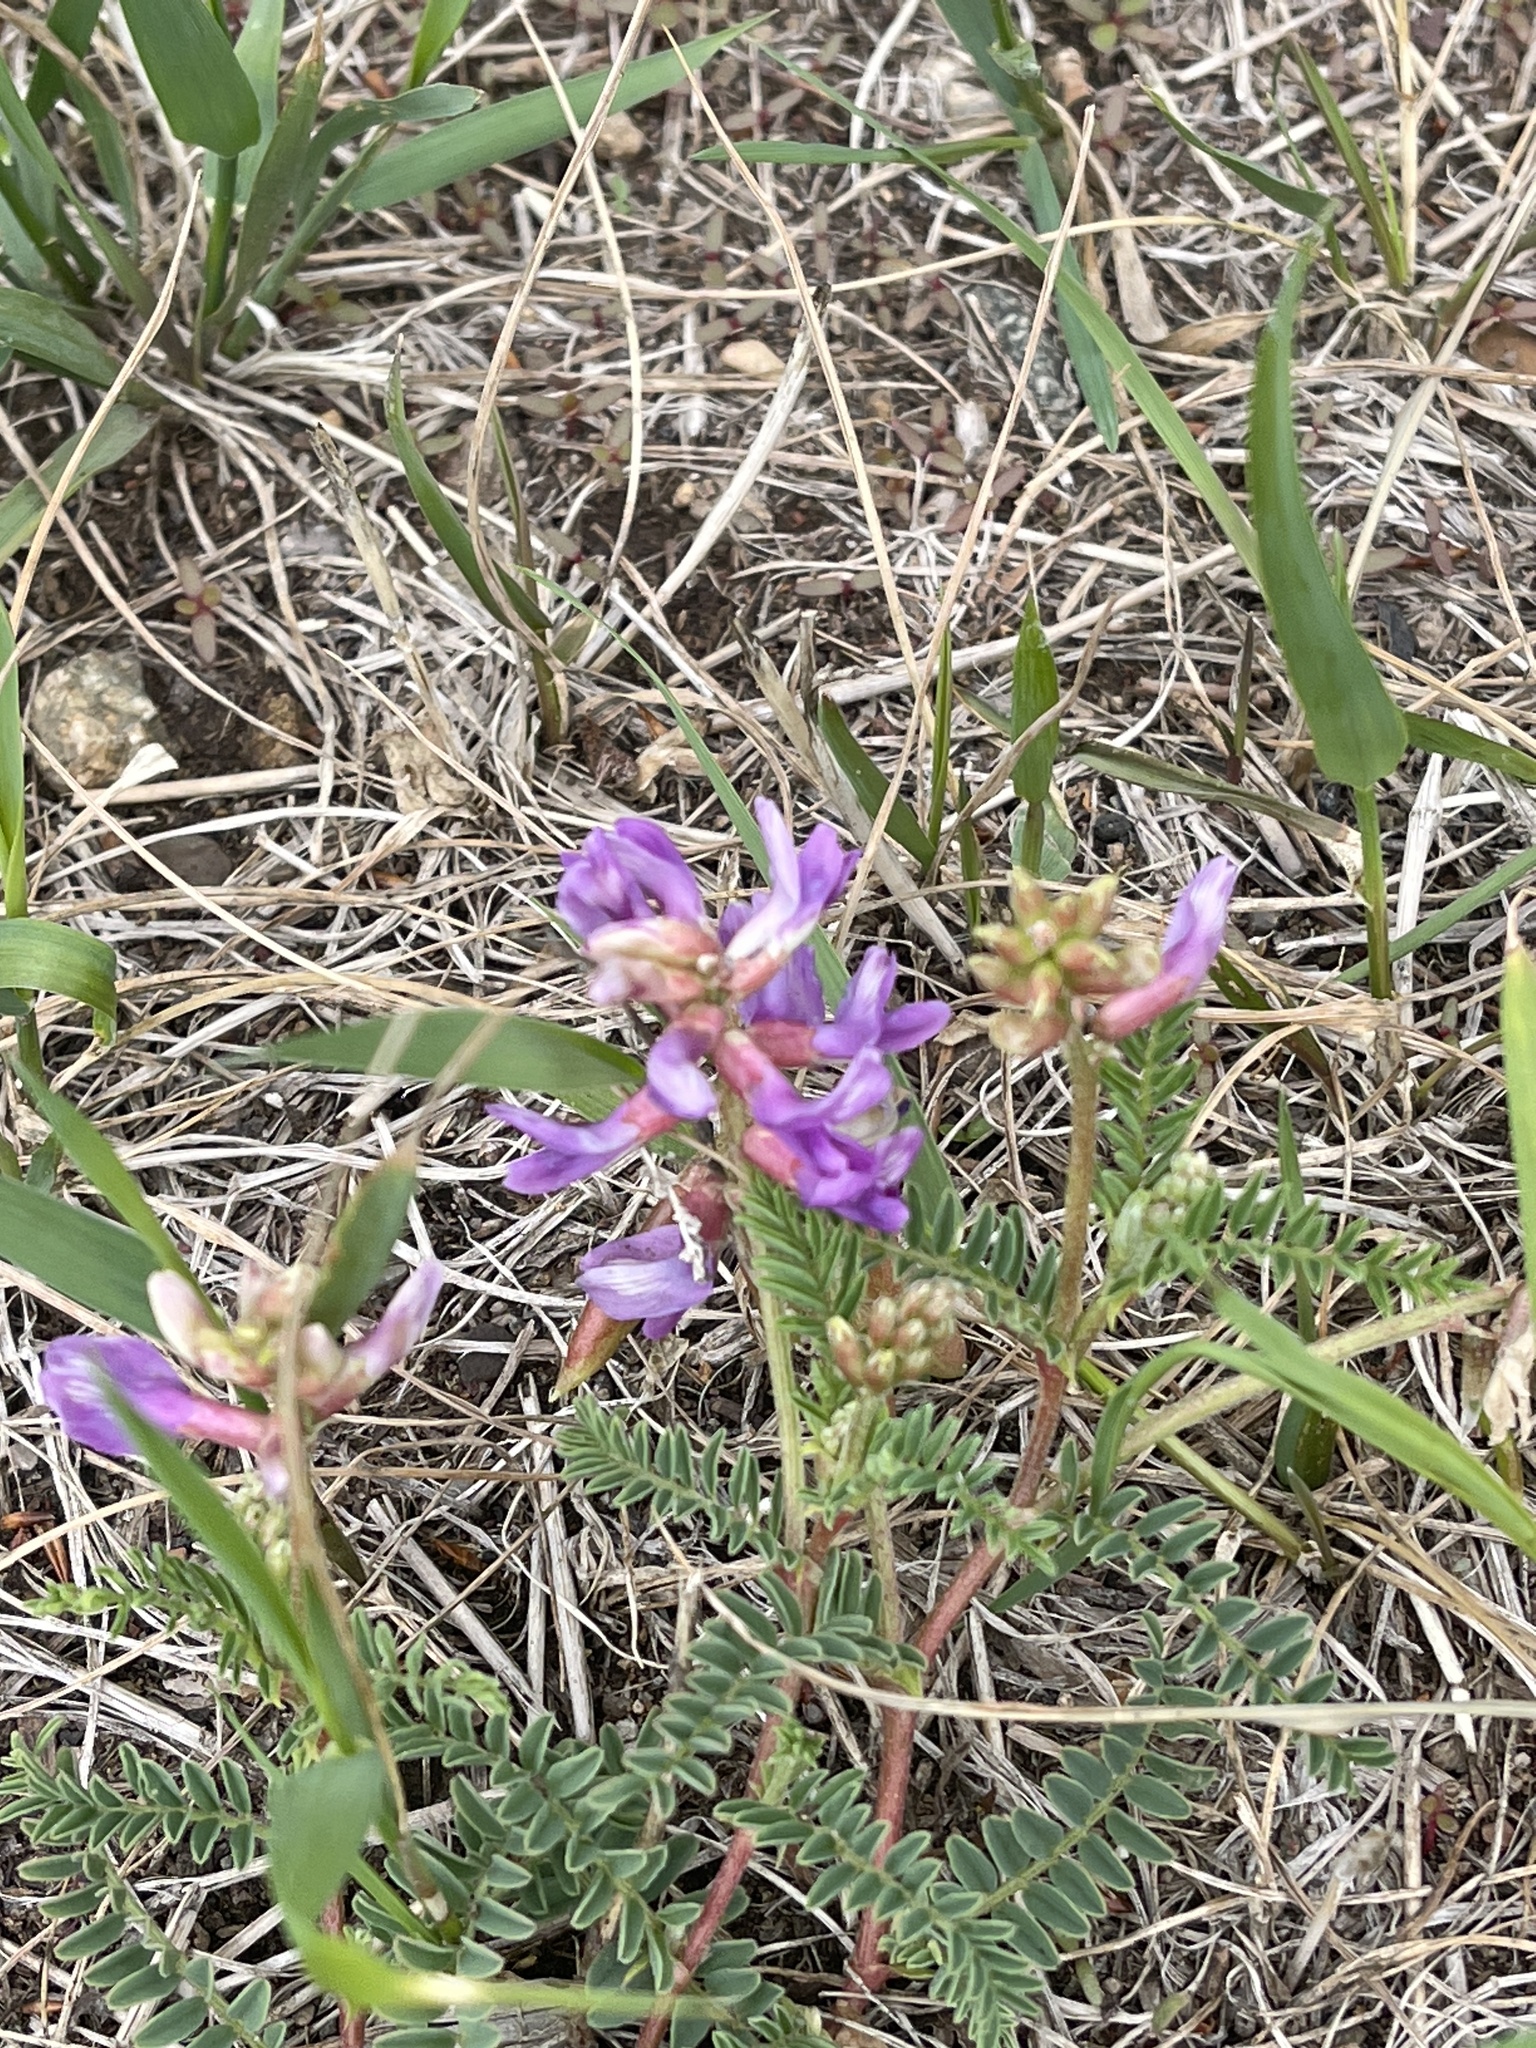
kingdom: Plantae
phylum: Tracheophyta
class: Magnoliopsida
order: Fabales
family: Fabaceae
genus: Astragalus
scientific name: Astragalus hallii
